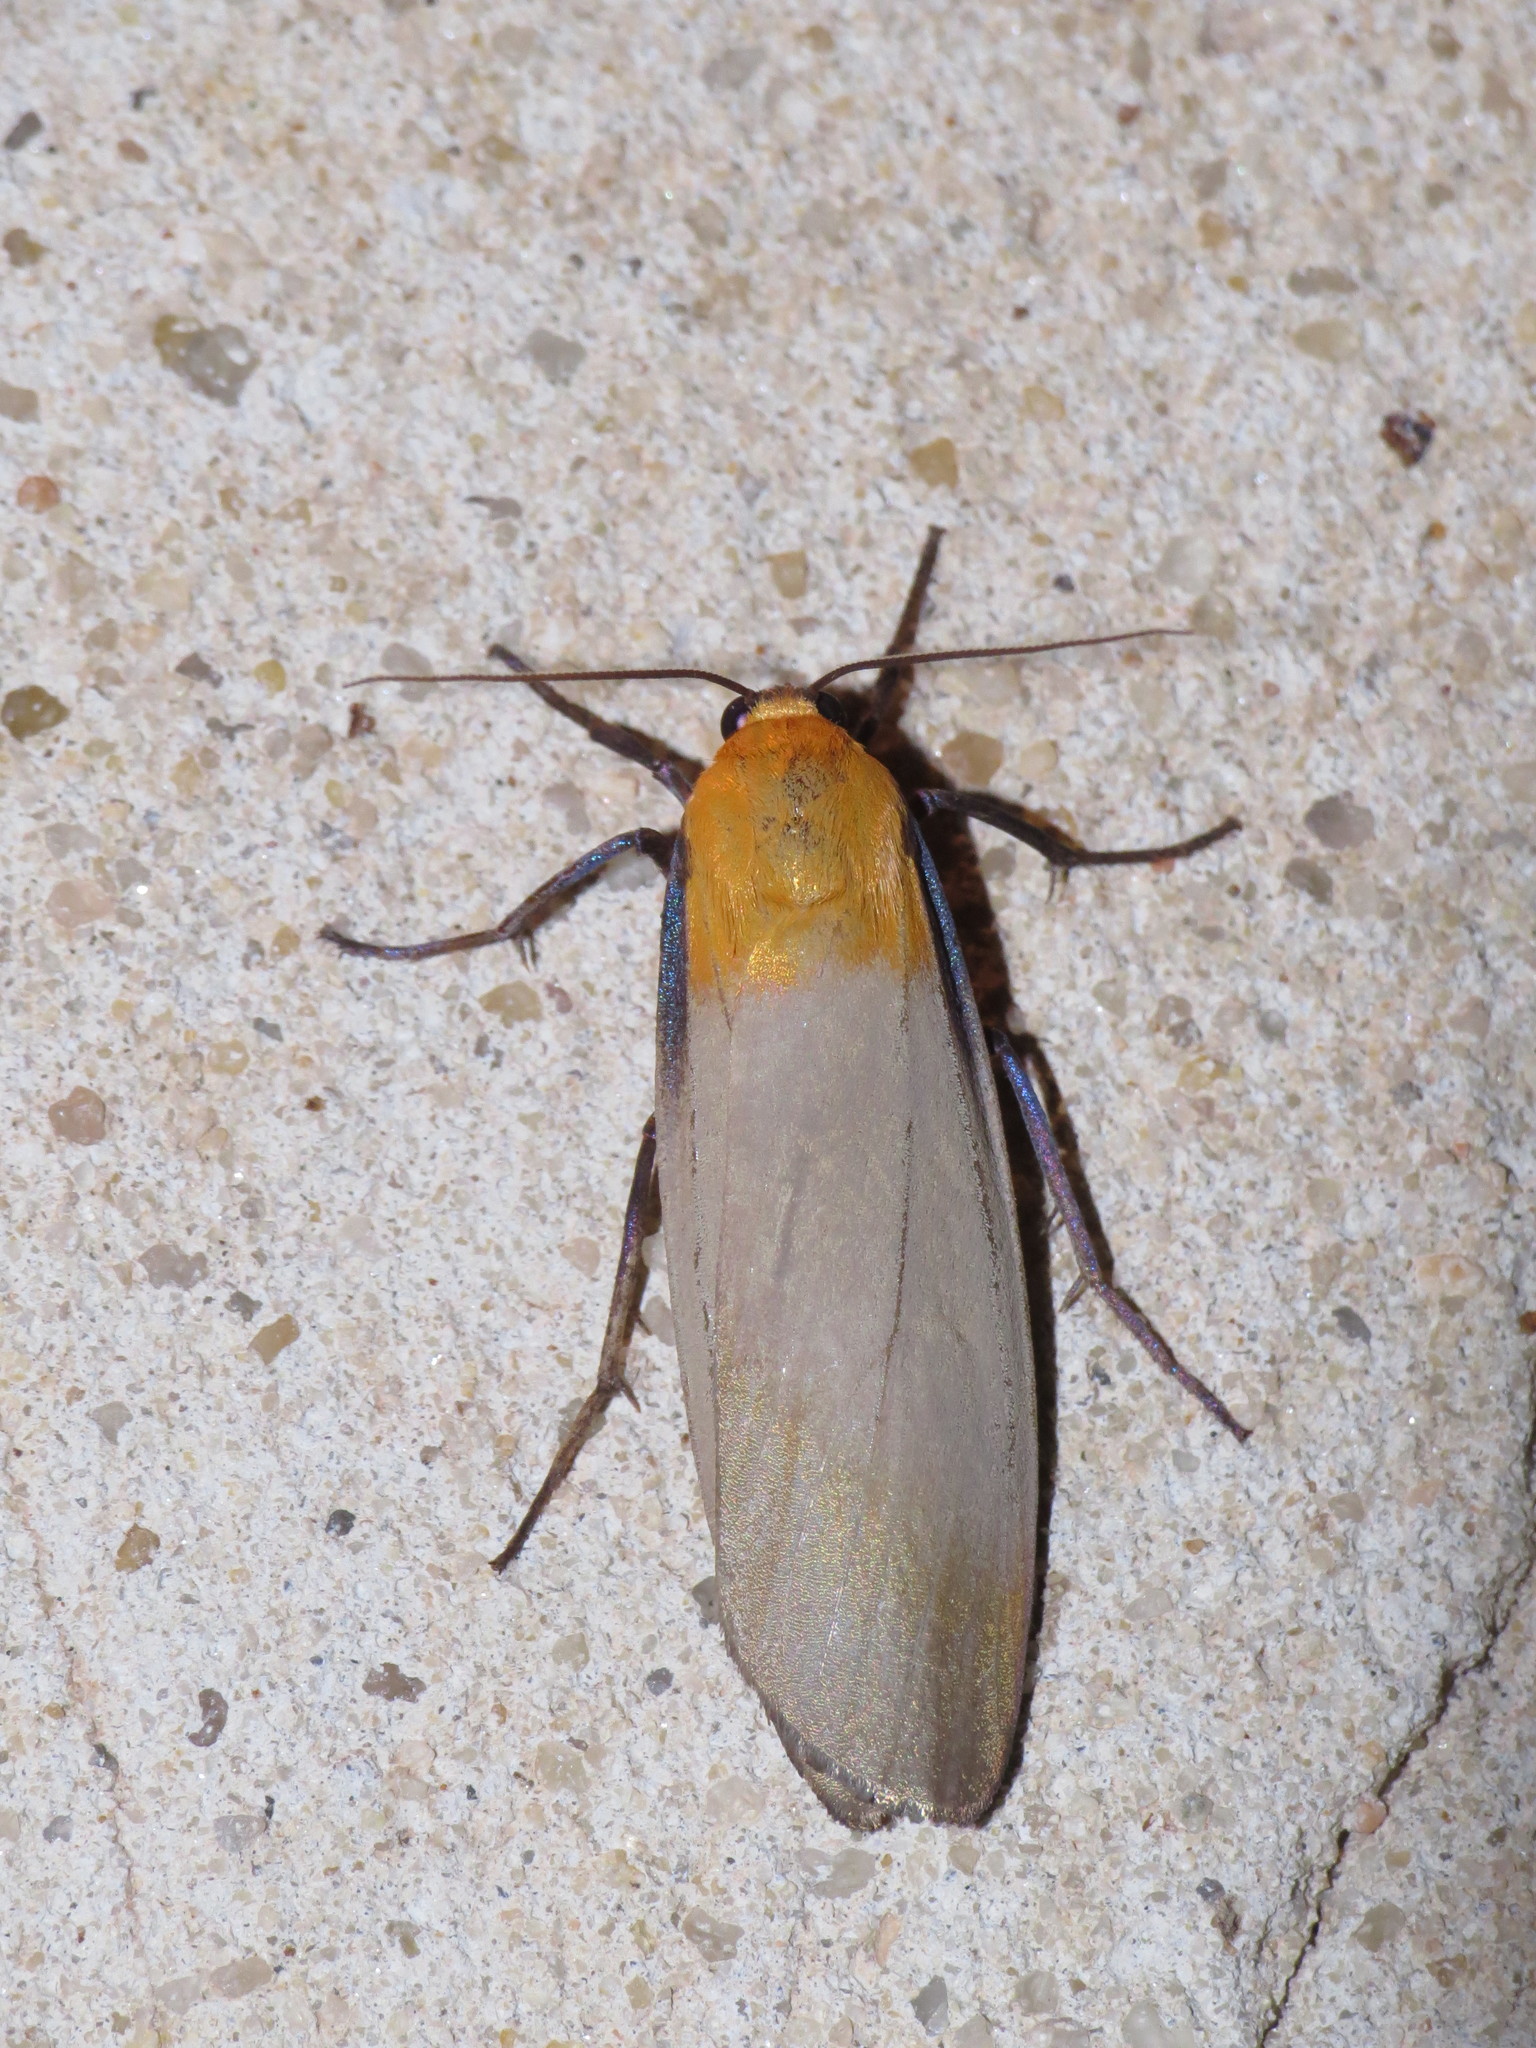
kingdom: Animalia
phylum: Arthropoda
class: Insecta
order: Lepidoptera
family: Erebidae
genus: Lithosia
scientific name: Lithosia quadra
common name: Four-spotted footman
